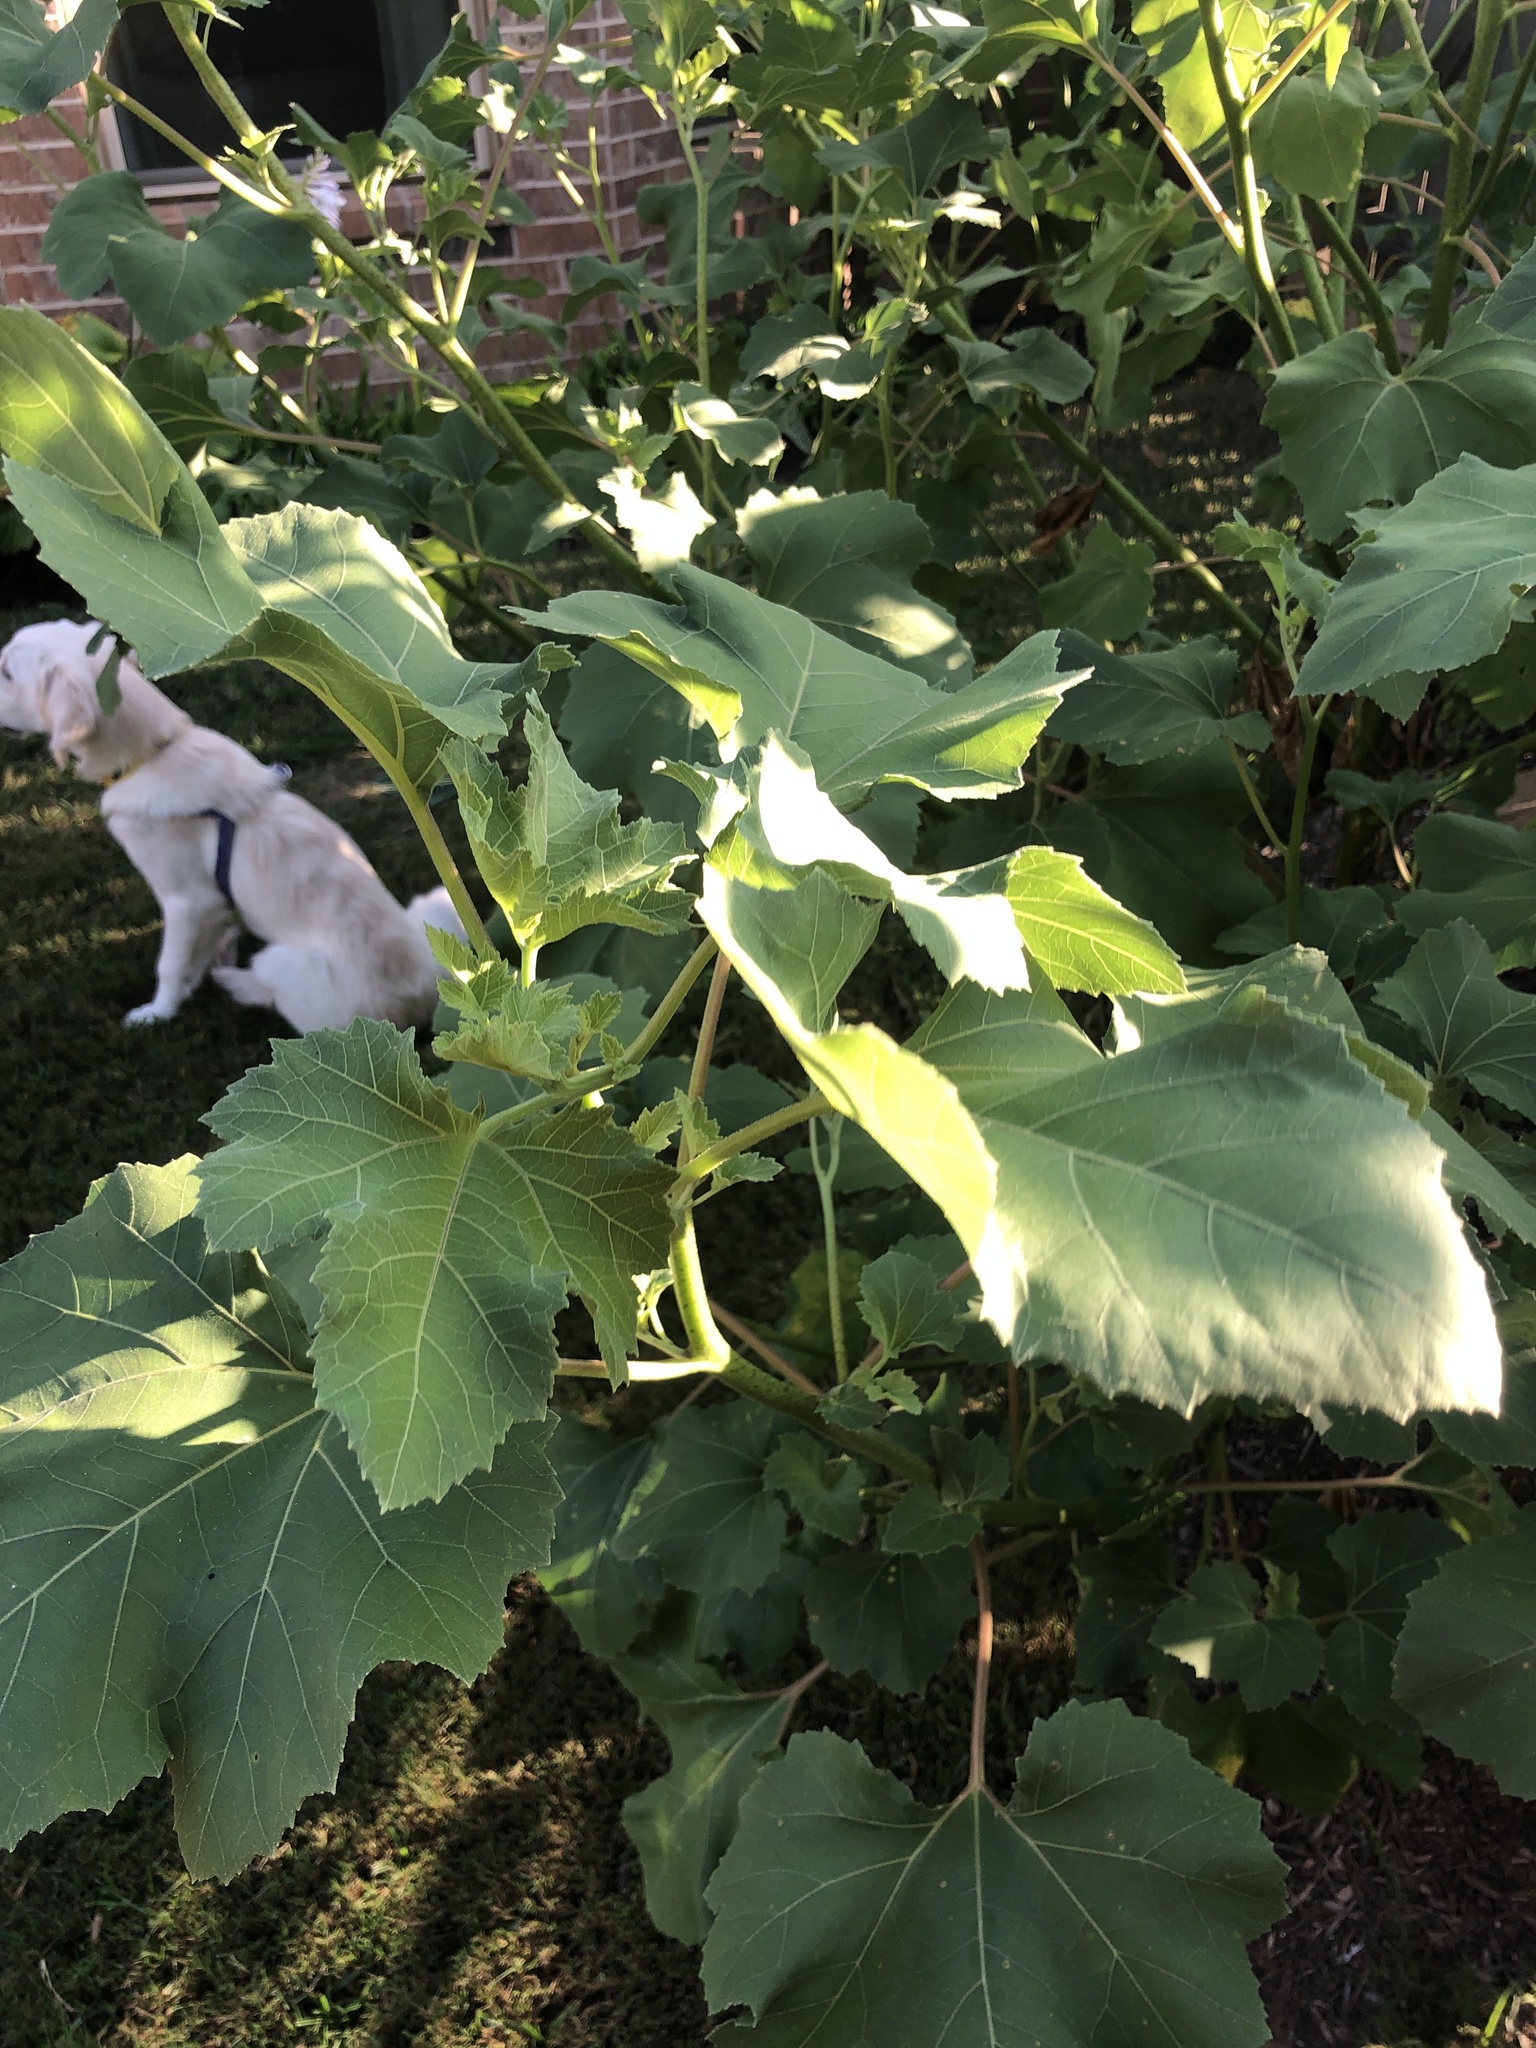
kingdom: Plantae
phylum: Tracheophyta
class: Magnoliopsida
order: Asterales
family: Asteraceae
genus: Xanthium
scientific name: Xanthium strumarium
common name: Rough cocklebur
